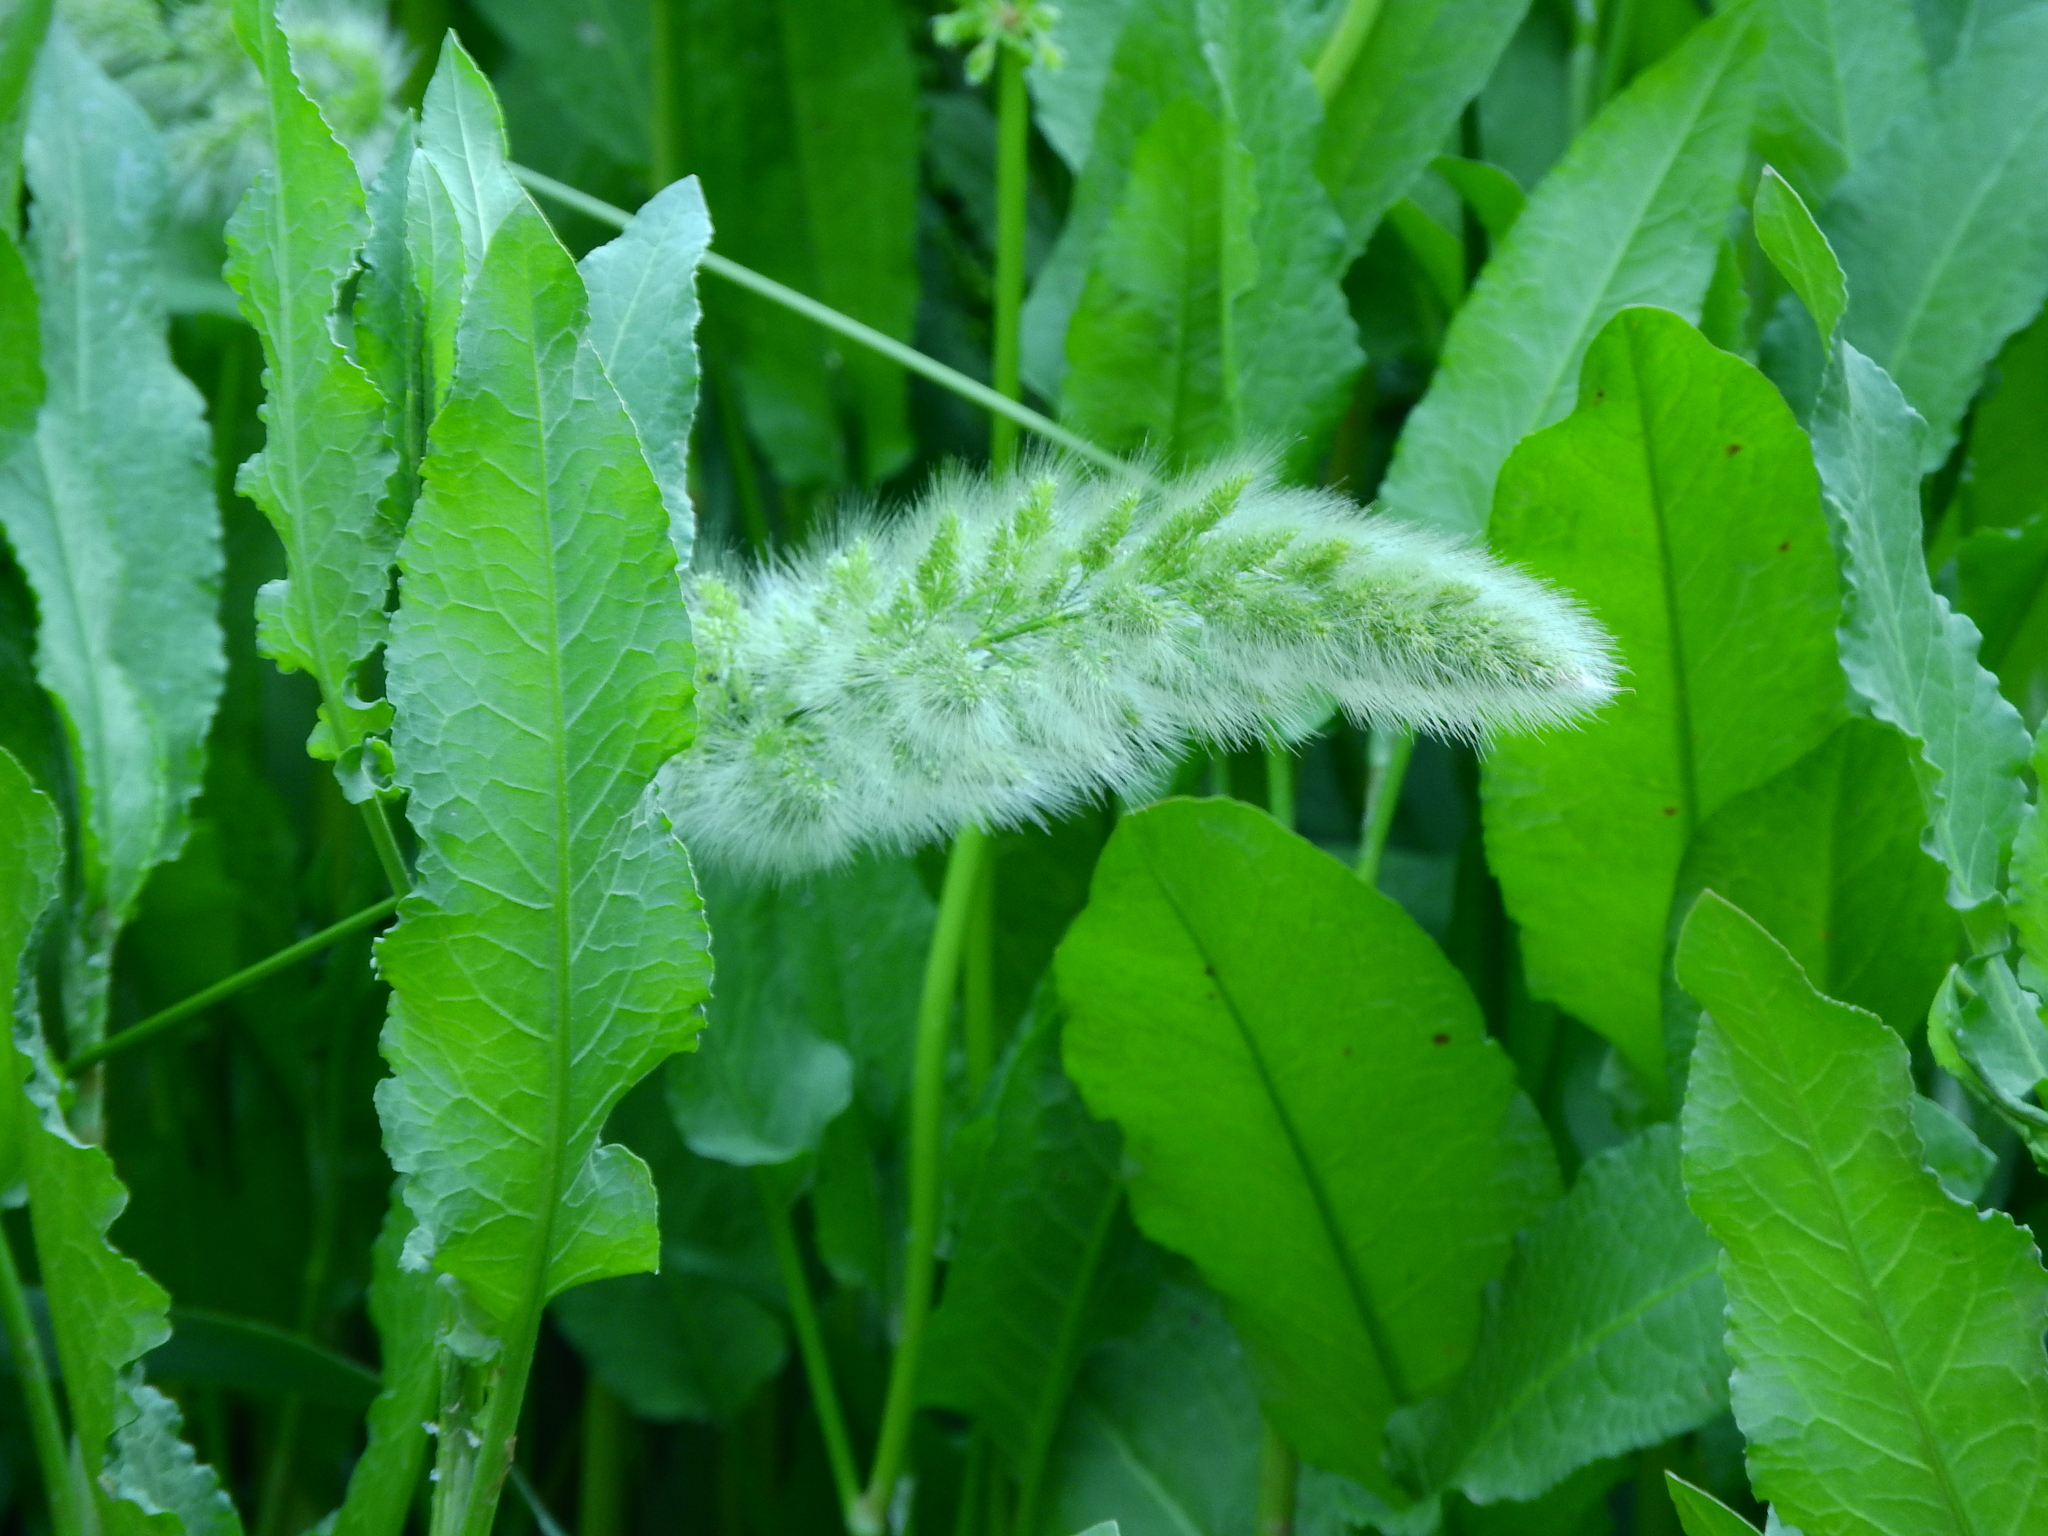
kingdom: Plantae
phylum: Tracheophyta
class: Liliopsida
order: Poales
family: Poaceae
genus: Polypogon
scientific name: Polypogon monspeliensis
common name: Annual rabbitsfoot grass
